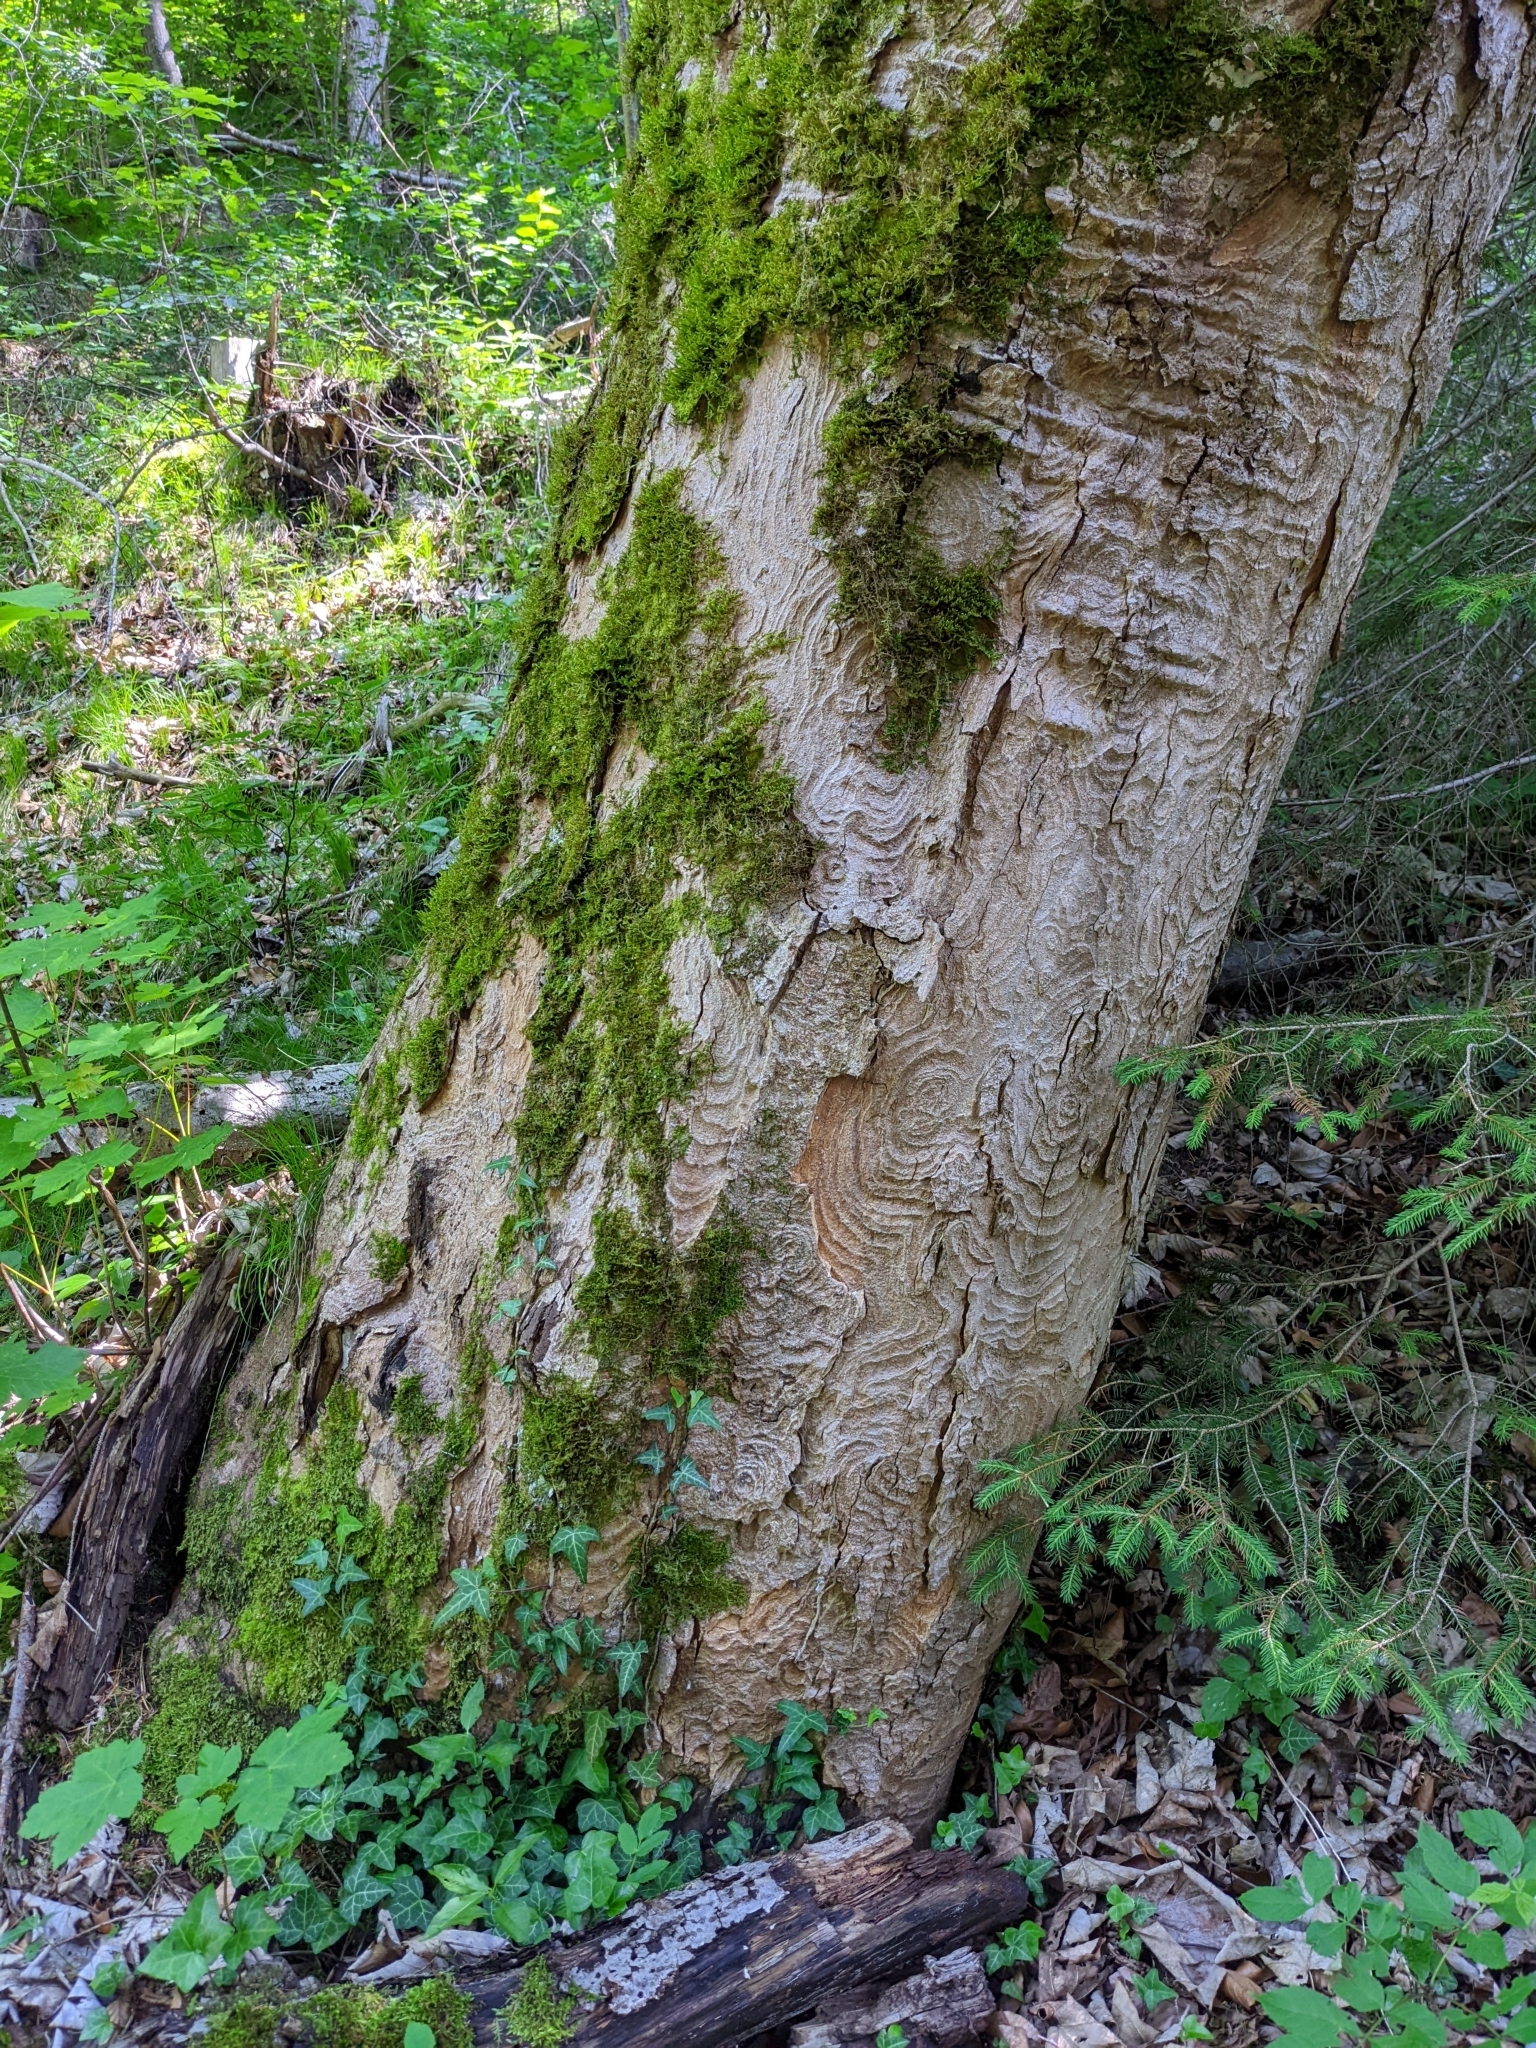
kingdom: Plantae
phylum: Tracheophyta
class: Magnoliopsida
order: Sapindales
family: Sapindaceae
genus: Acer
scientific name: Acer pseudoplatanus
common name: Sycamore
